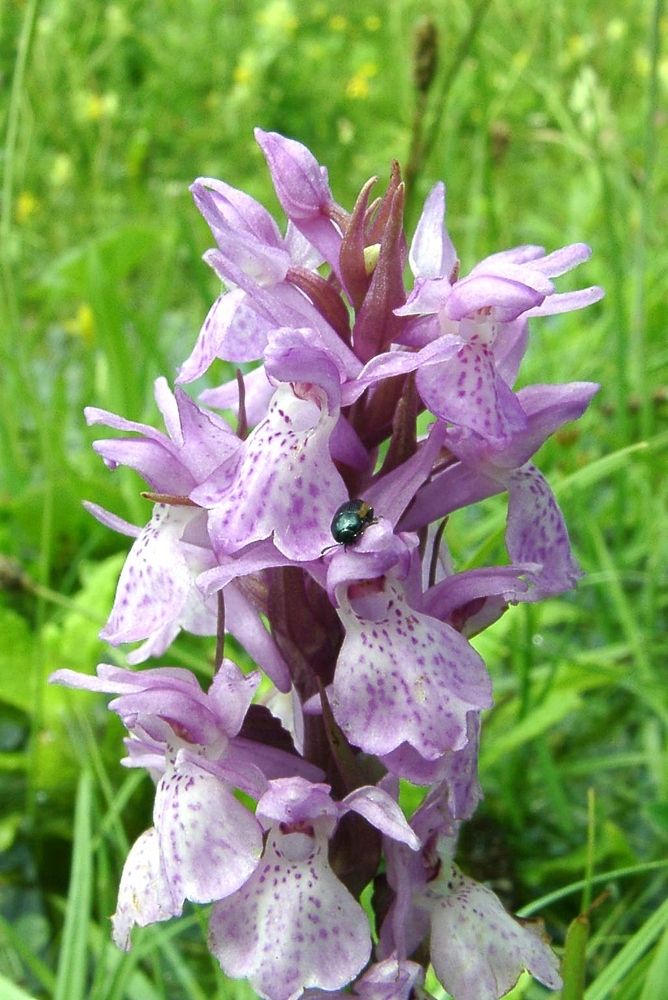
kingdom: Plantae
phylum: Tracheophyta
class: Liliopsida
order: Asparagales
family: Orchidaceae
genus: Dactylorhiza
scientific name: Dactylorhiza majalis
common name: Marsh orchid
